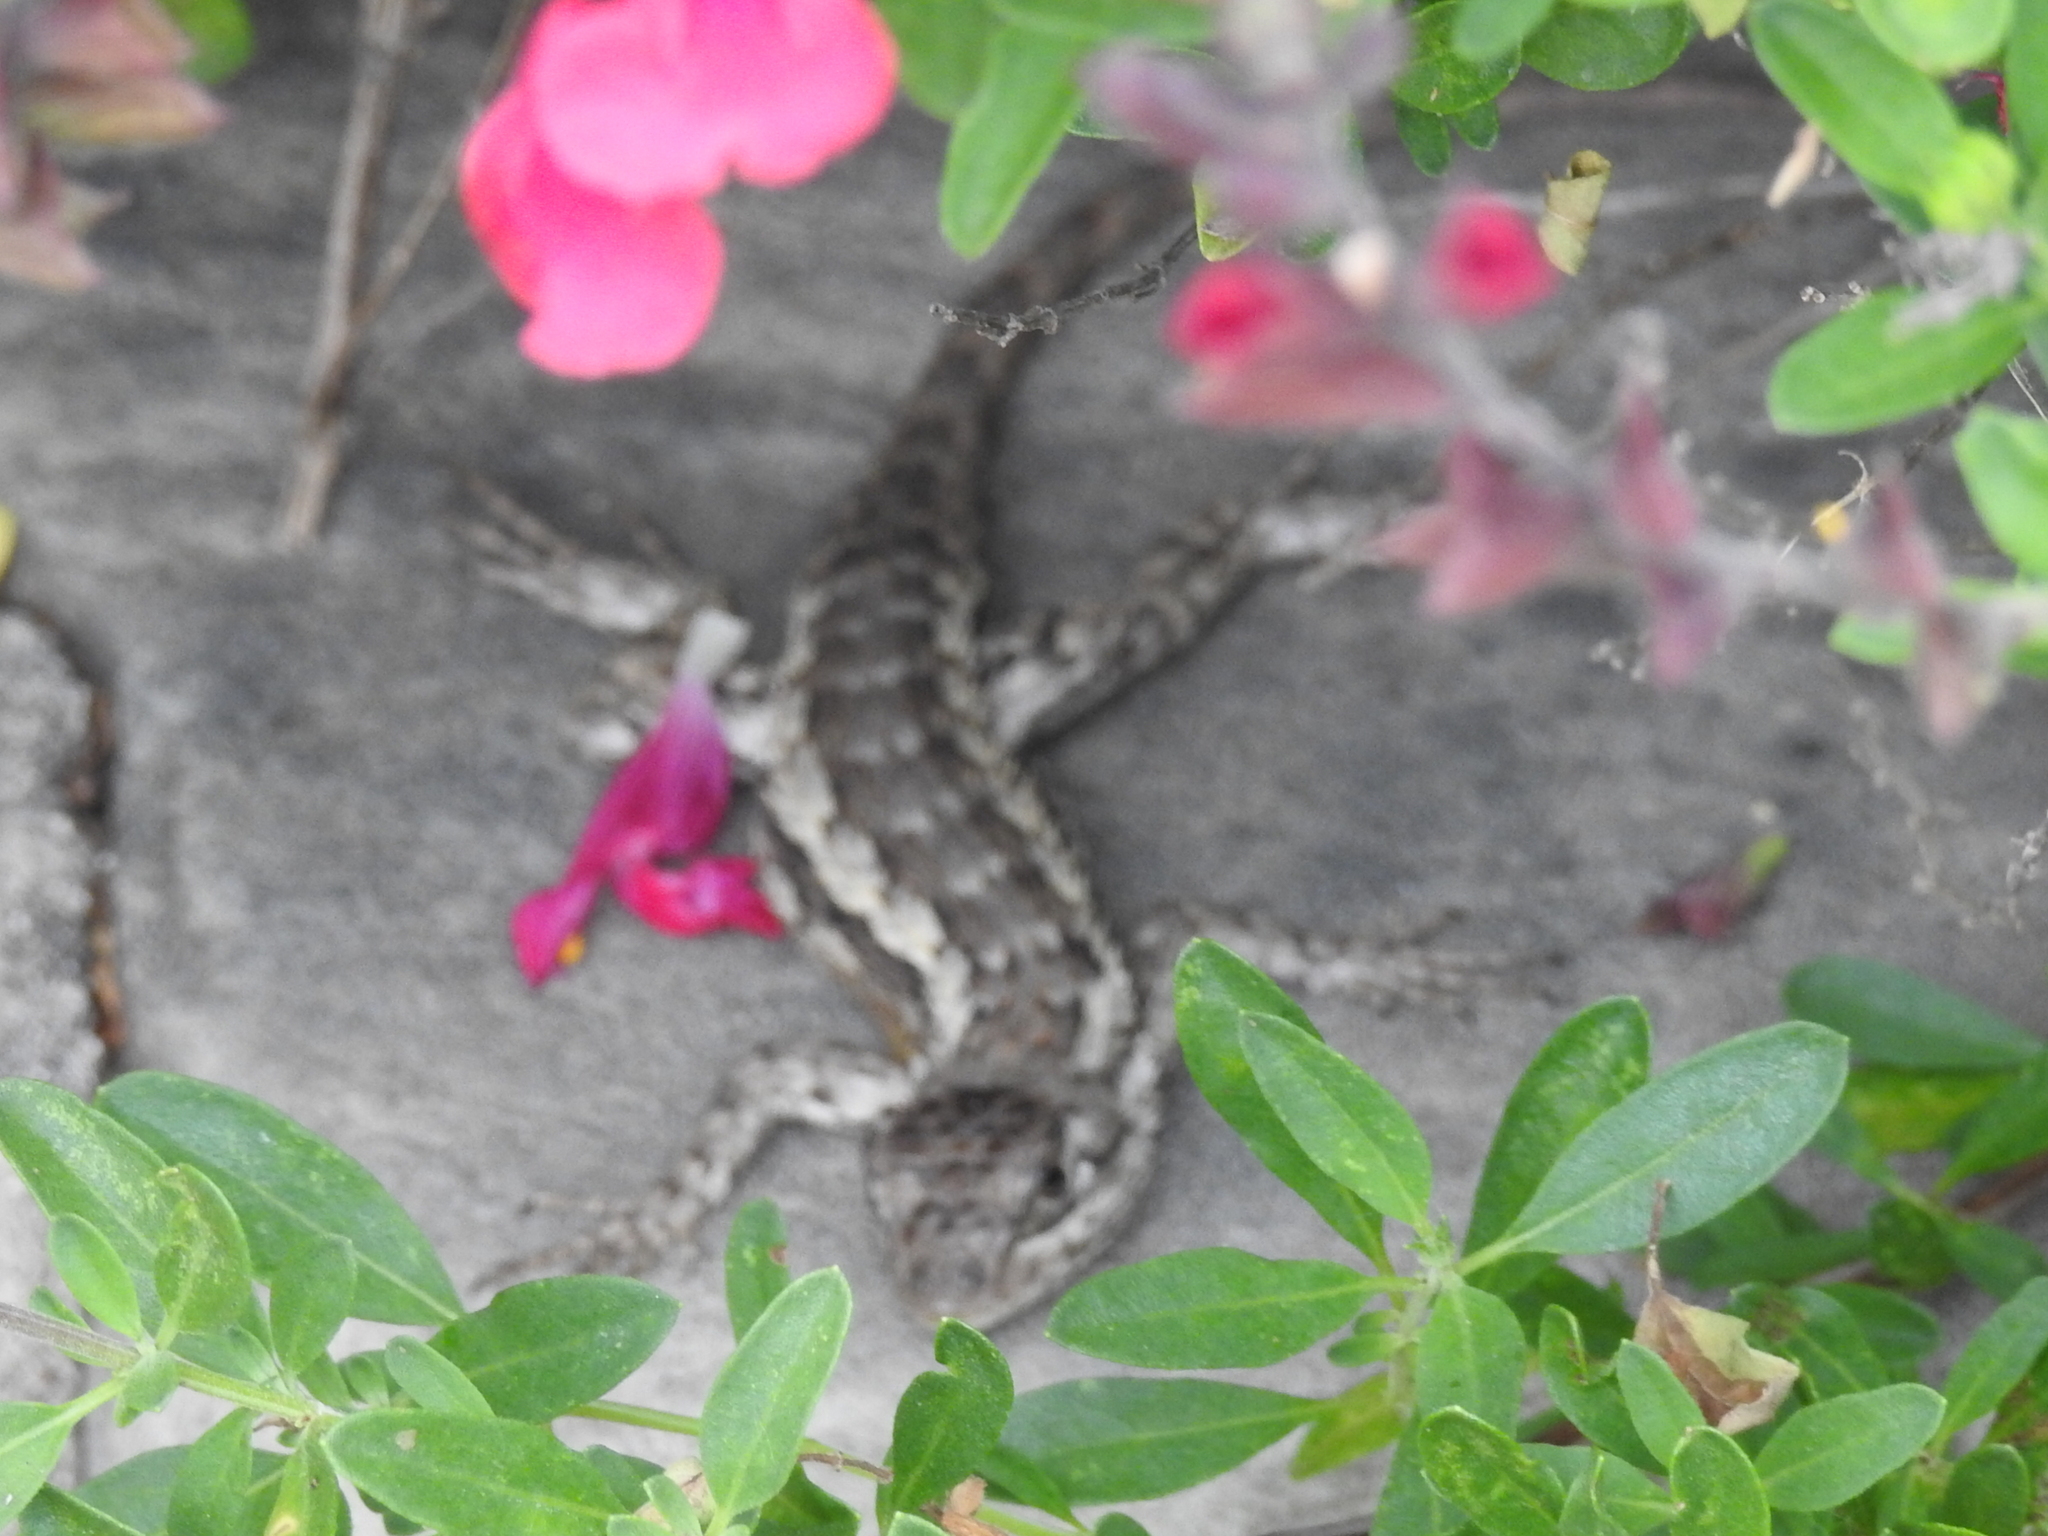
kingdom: Animalia
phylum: Chordata
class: Squamata
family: Phrynosomatidae
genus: Sceloporus
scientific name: Sceloporus olivaceus
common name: Texas spiny lizard
